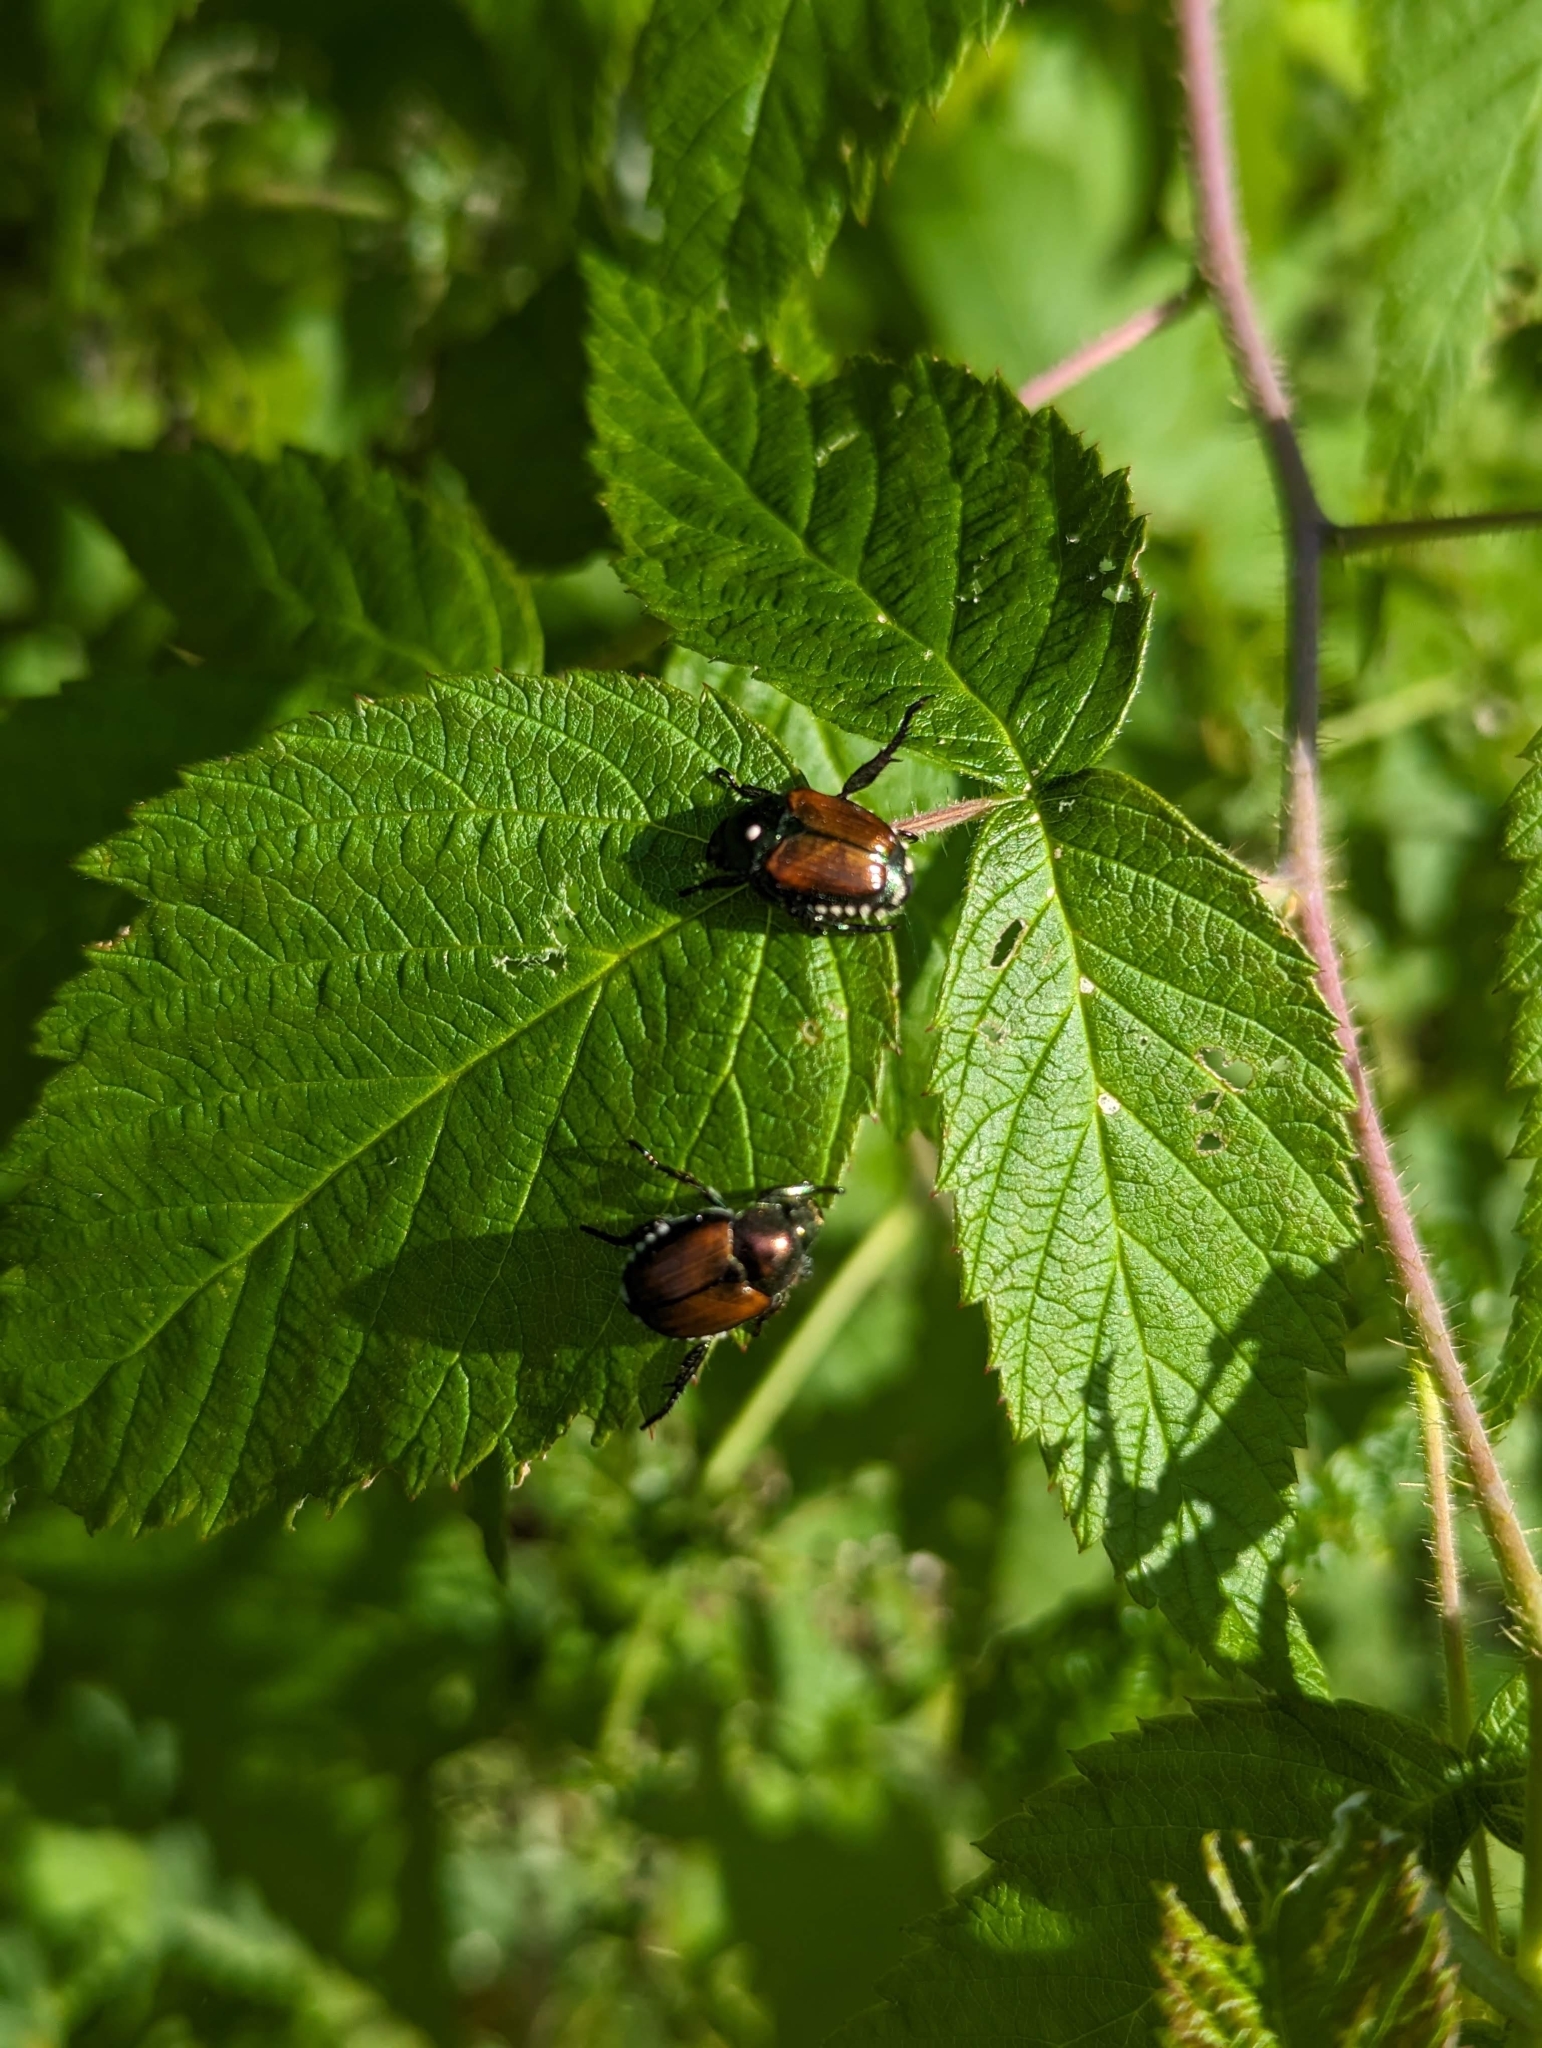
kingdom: Animalia
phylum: Arthropoda
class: Insecta
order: Coleoptera
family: Scarabaeidae
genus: Popillia
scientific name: Popillia japonica
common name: Japanese beetle
